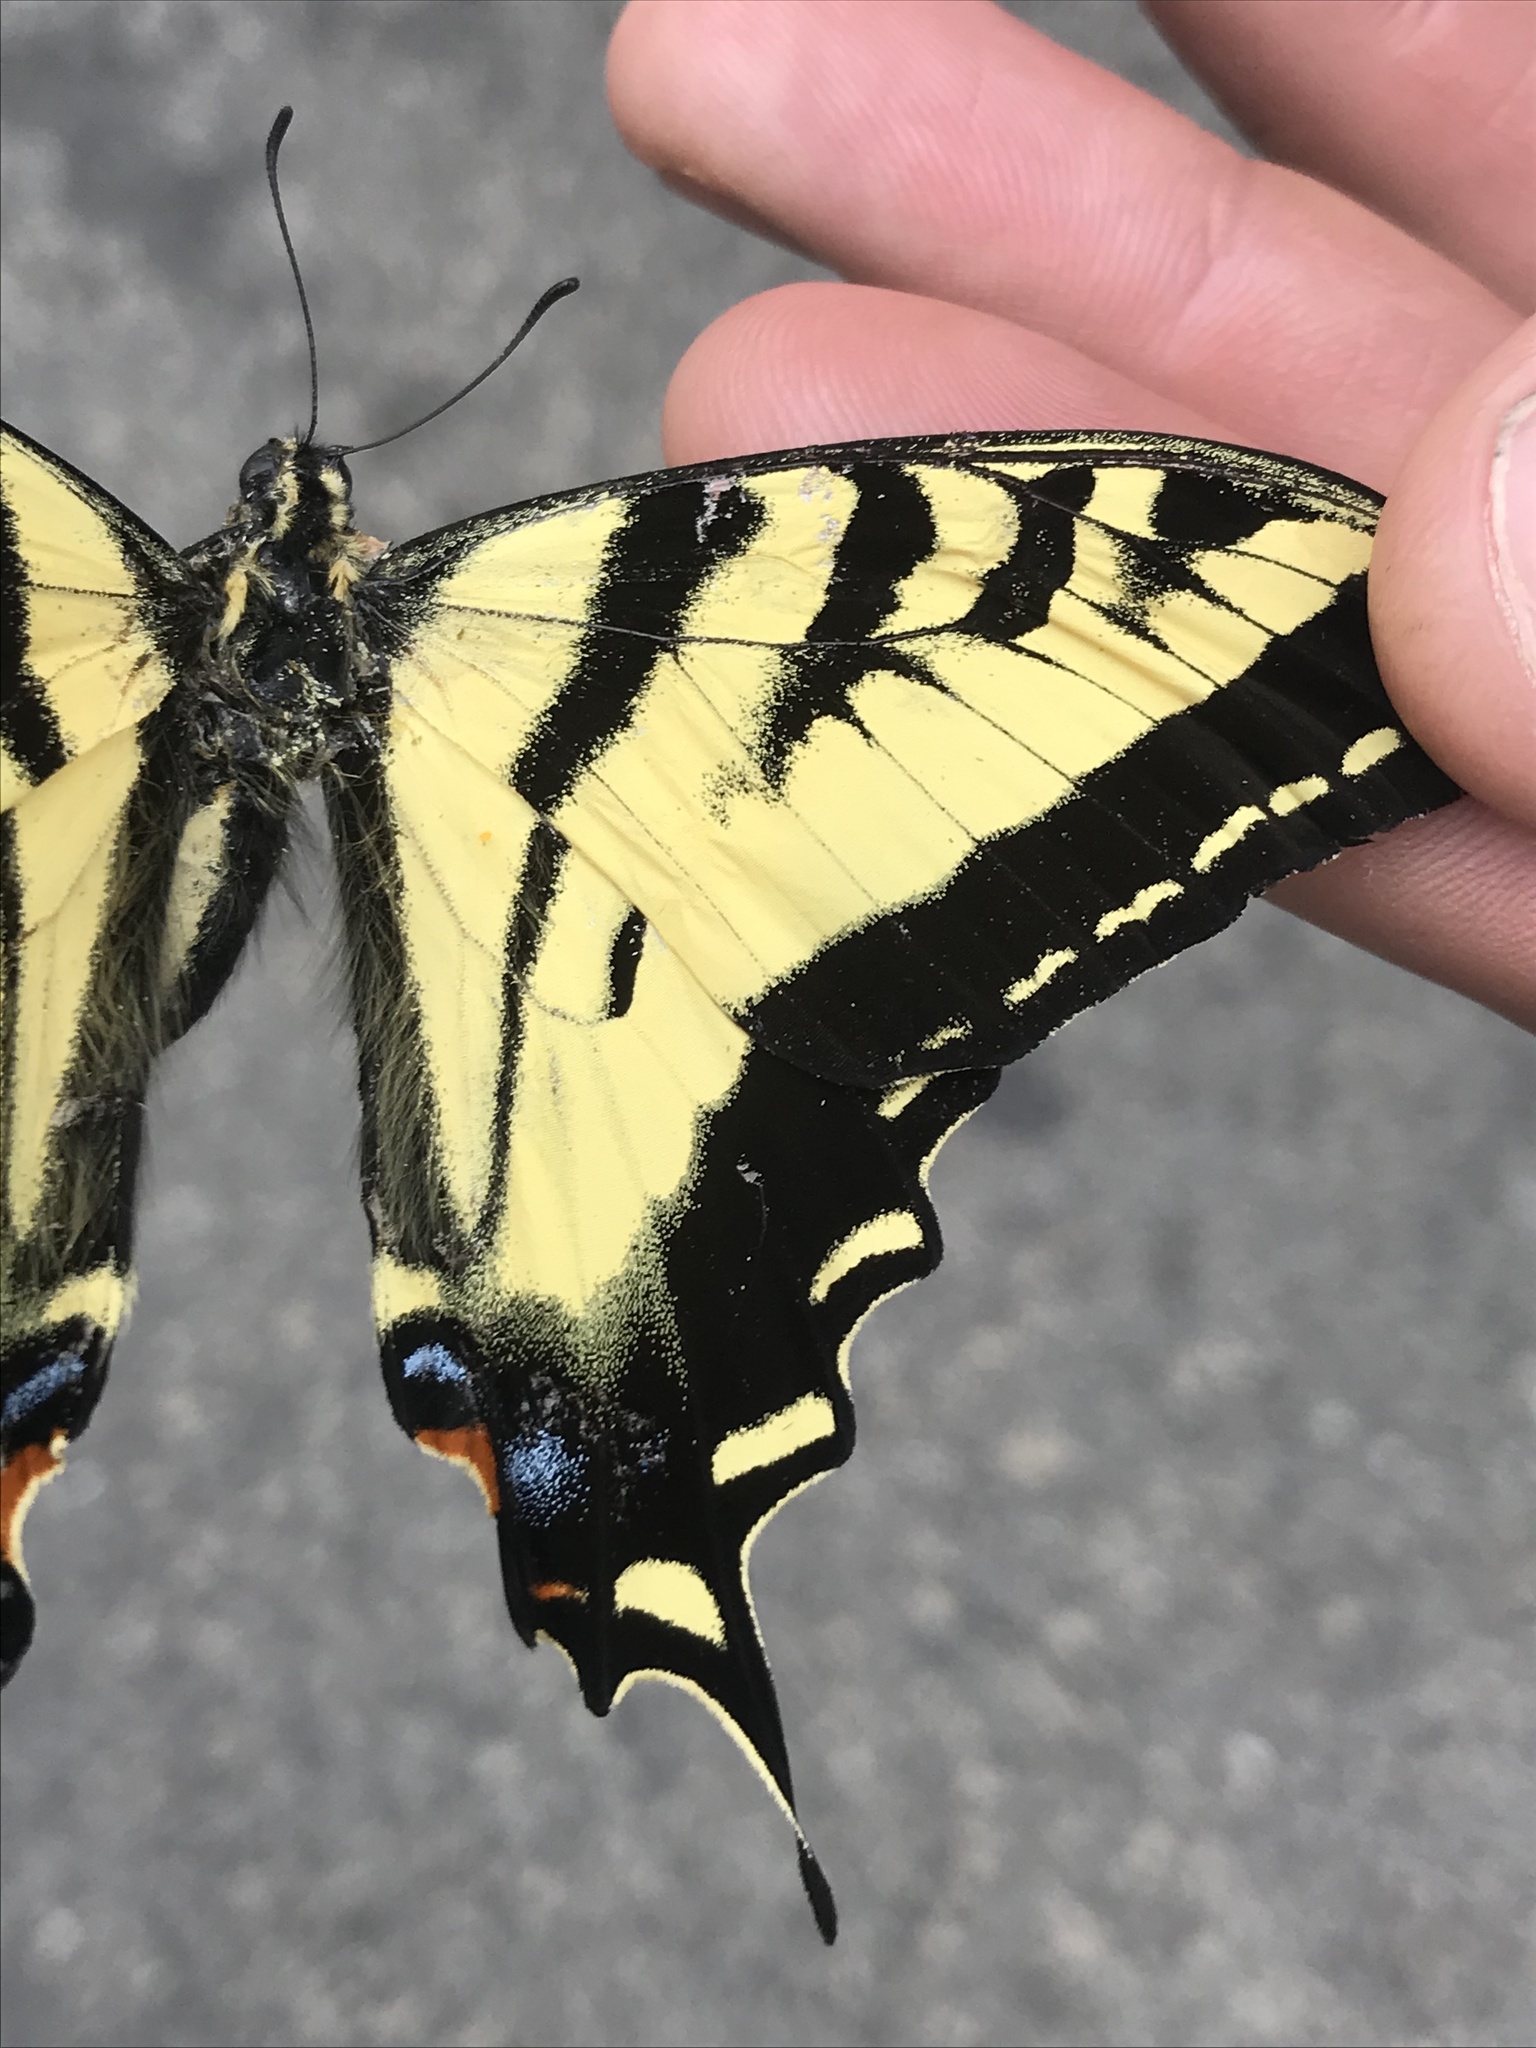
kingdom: Animalia
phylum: Arthropoda
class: Insecta
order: Lepidoptera
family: Papilionidae
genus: Papilio
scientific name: Papilio rutulus
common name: Western tiger swallowtail
